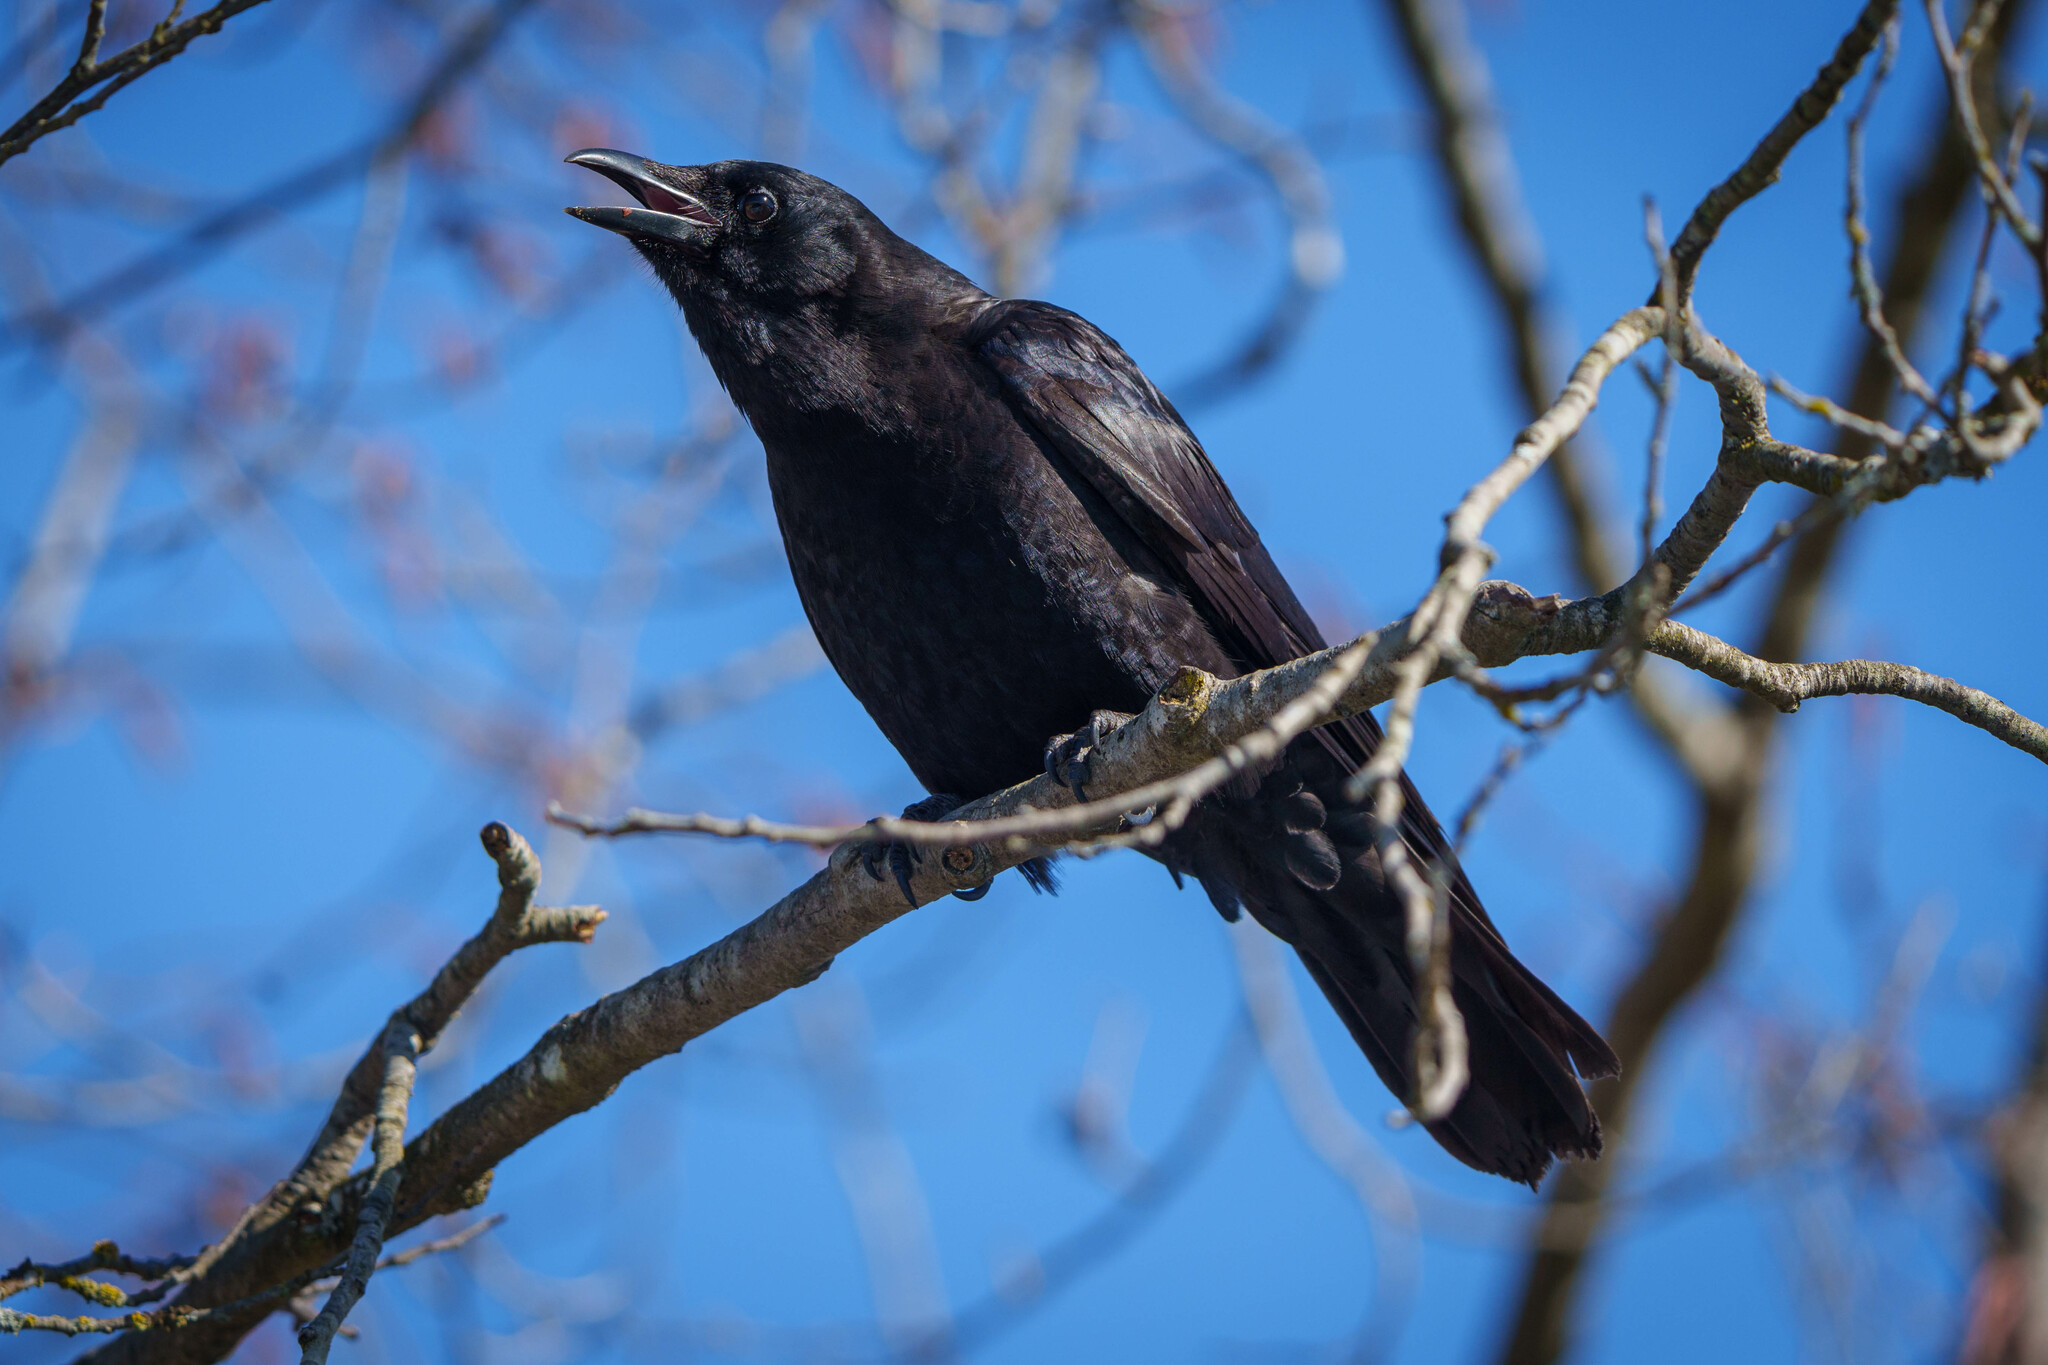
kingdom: Animalia
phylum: Chordata
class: Aves
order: Passeriformes
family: Corvidae
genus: Corvus
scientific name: Corvus brachyrhynchos
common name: American crow
